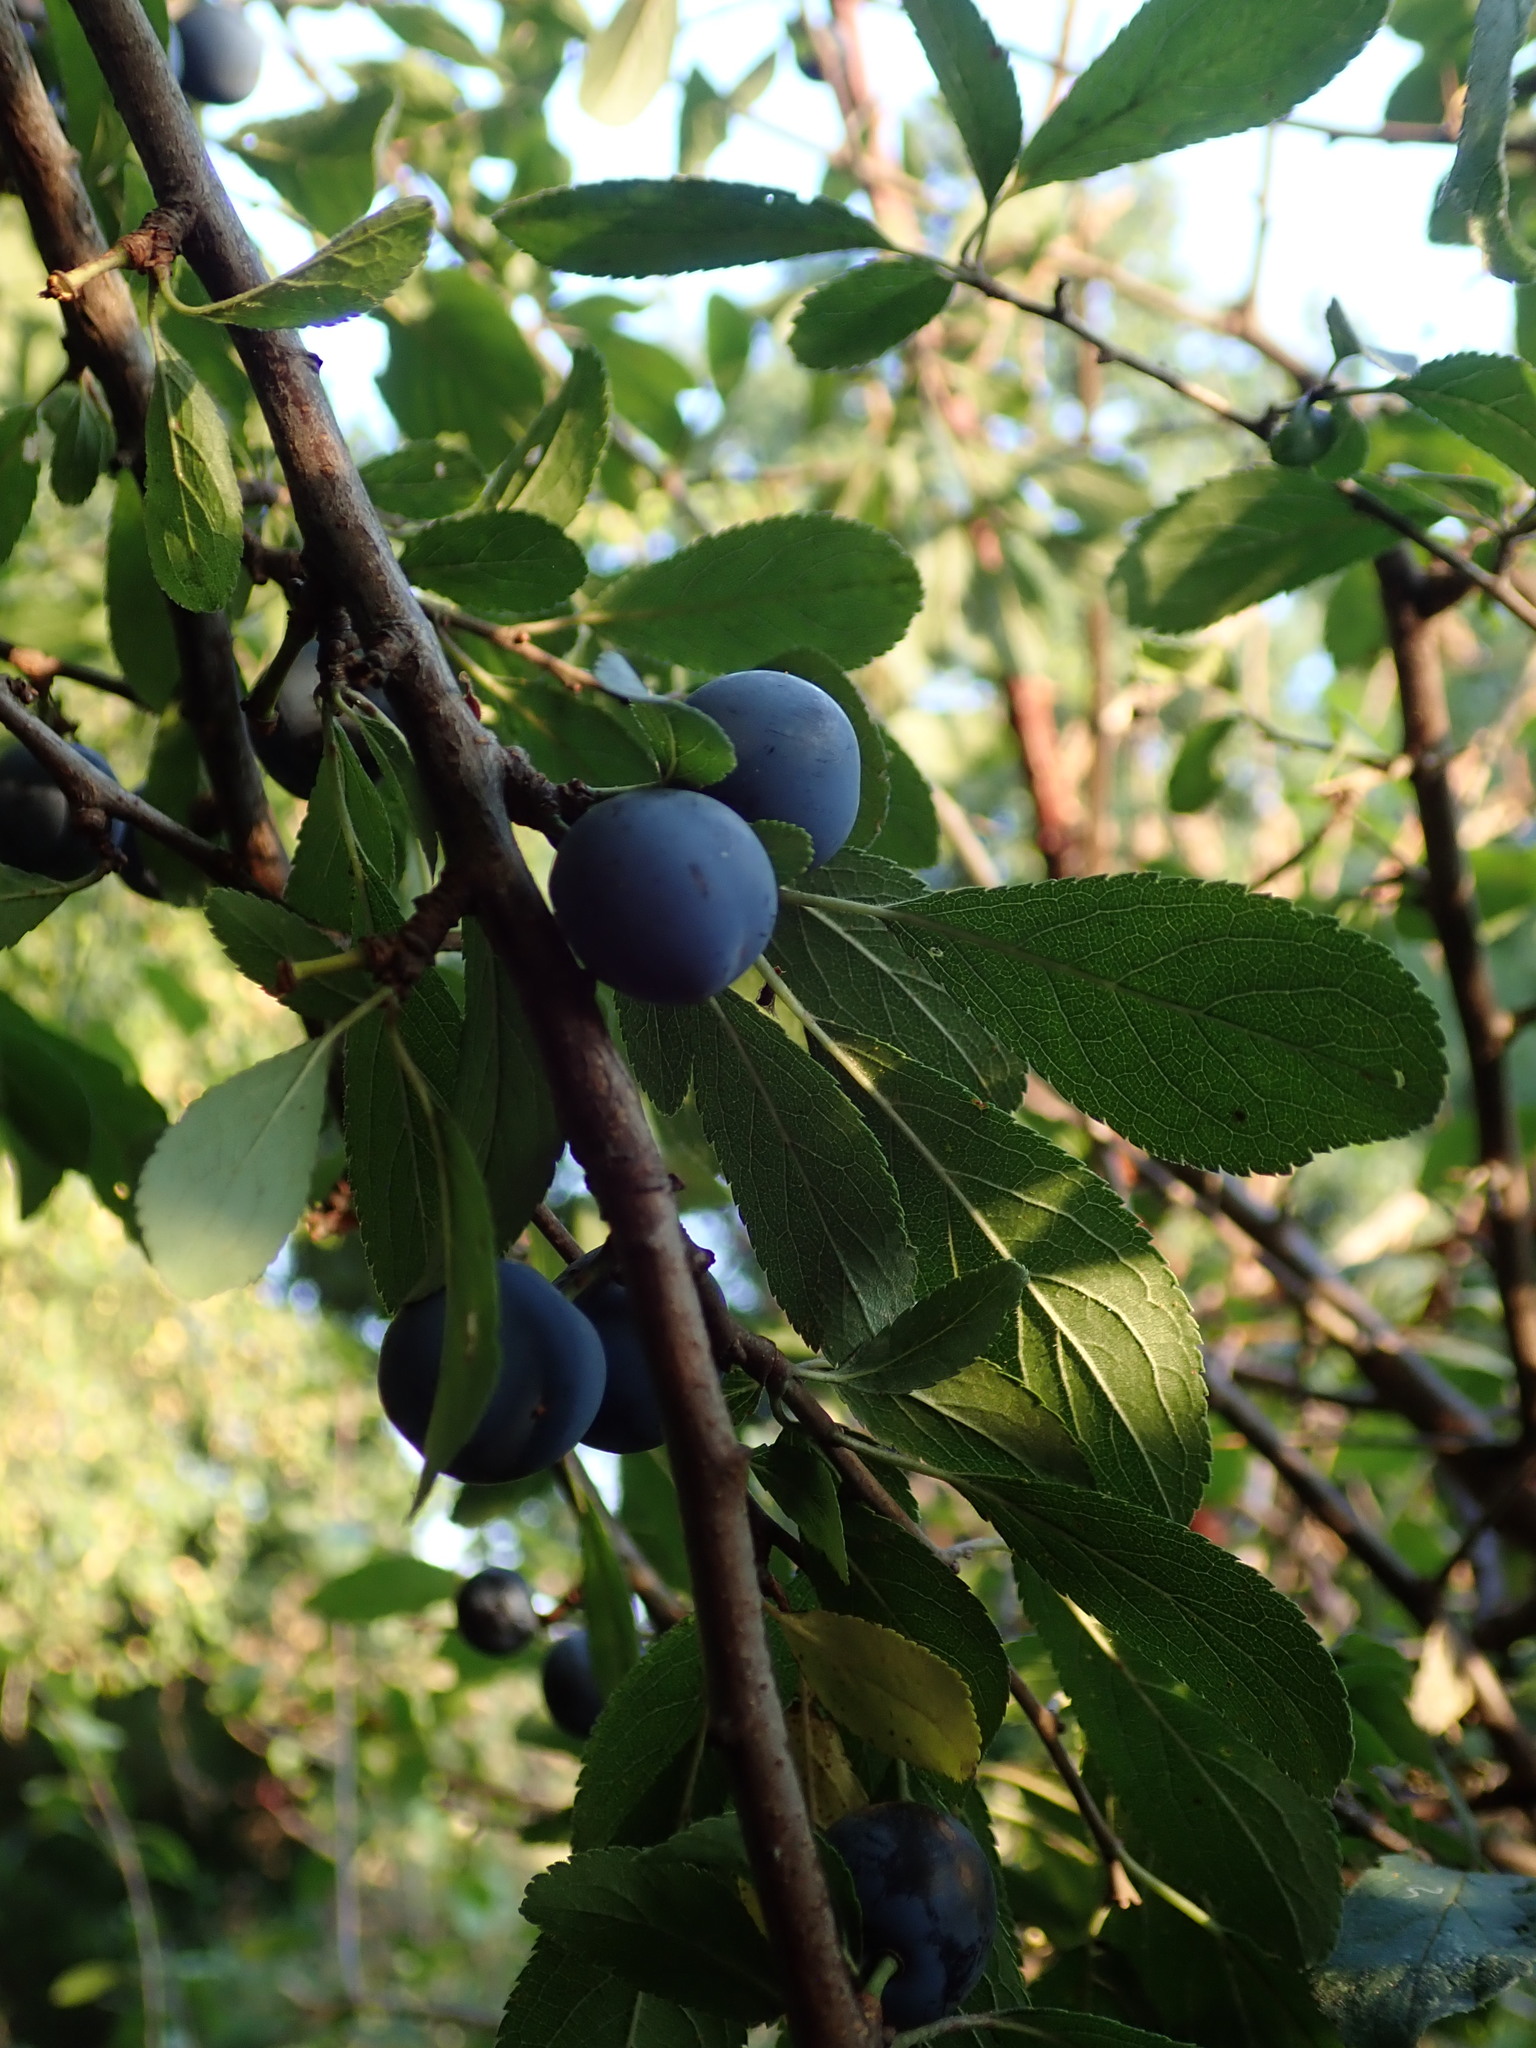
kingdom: Plantae
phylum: Tracheophyta
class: Magnoliopsida
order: Rosales
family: Rosaceae
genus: Prunus
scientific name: Prunus spinosa
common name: Blackthorn
